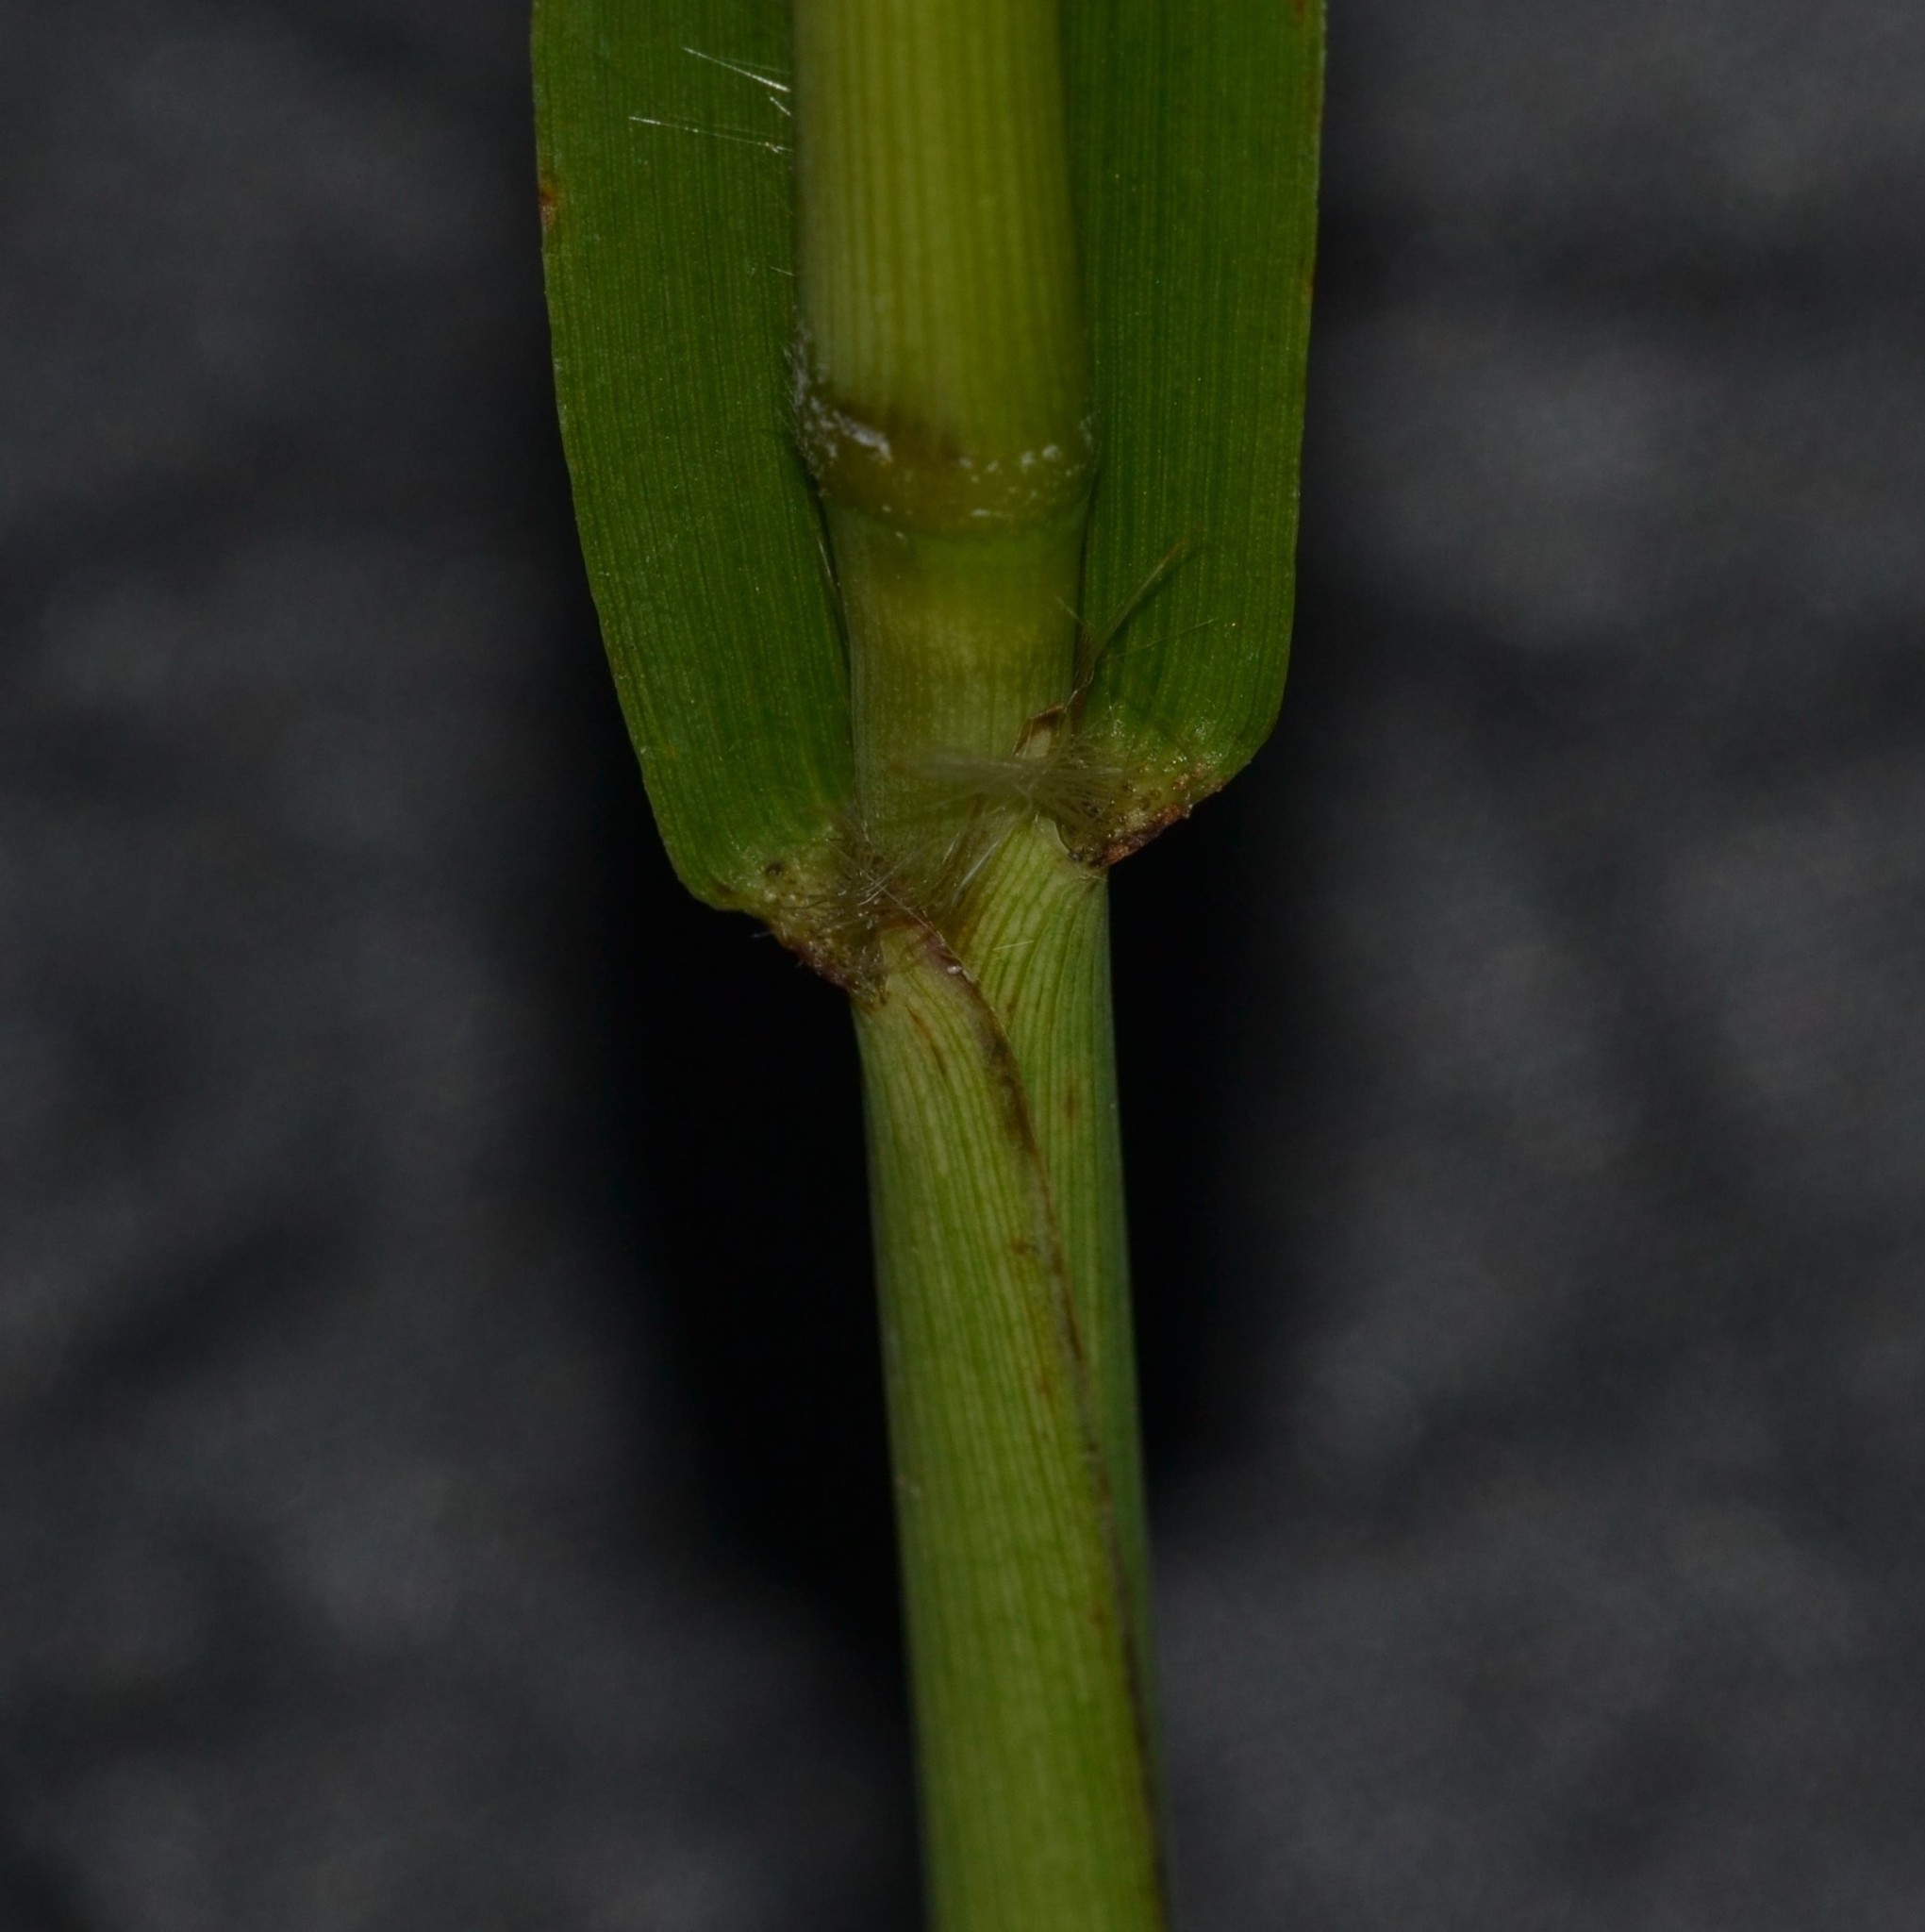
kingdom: Plantae
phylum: Tracheophyta
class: Liliopsida
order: Poales
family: Poaceae
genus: Paspalum
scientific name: Paspalum urvillei
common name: Vasey's grass
